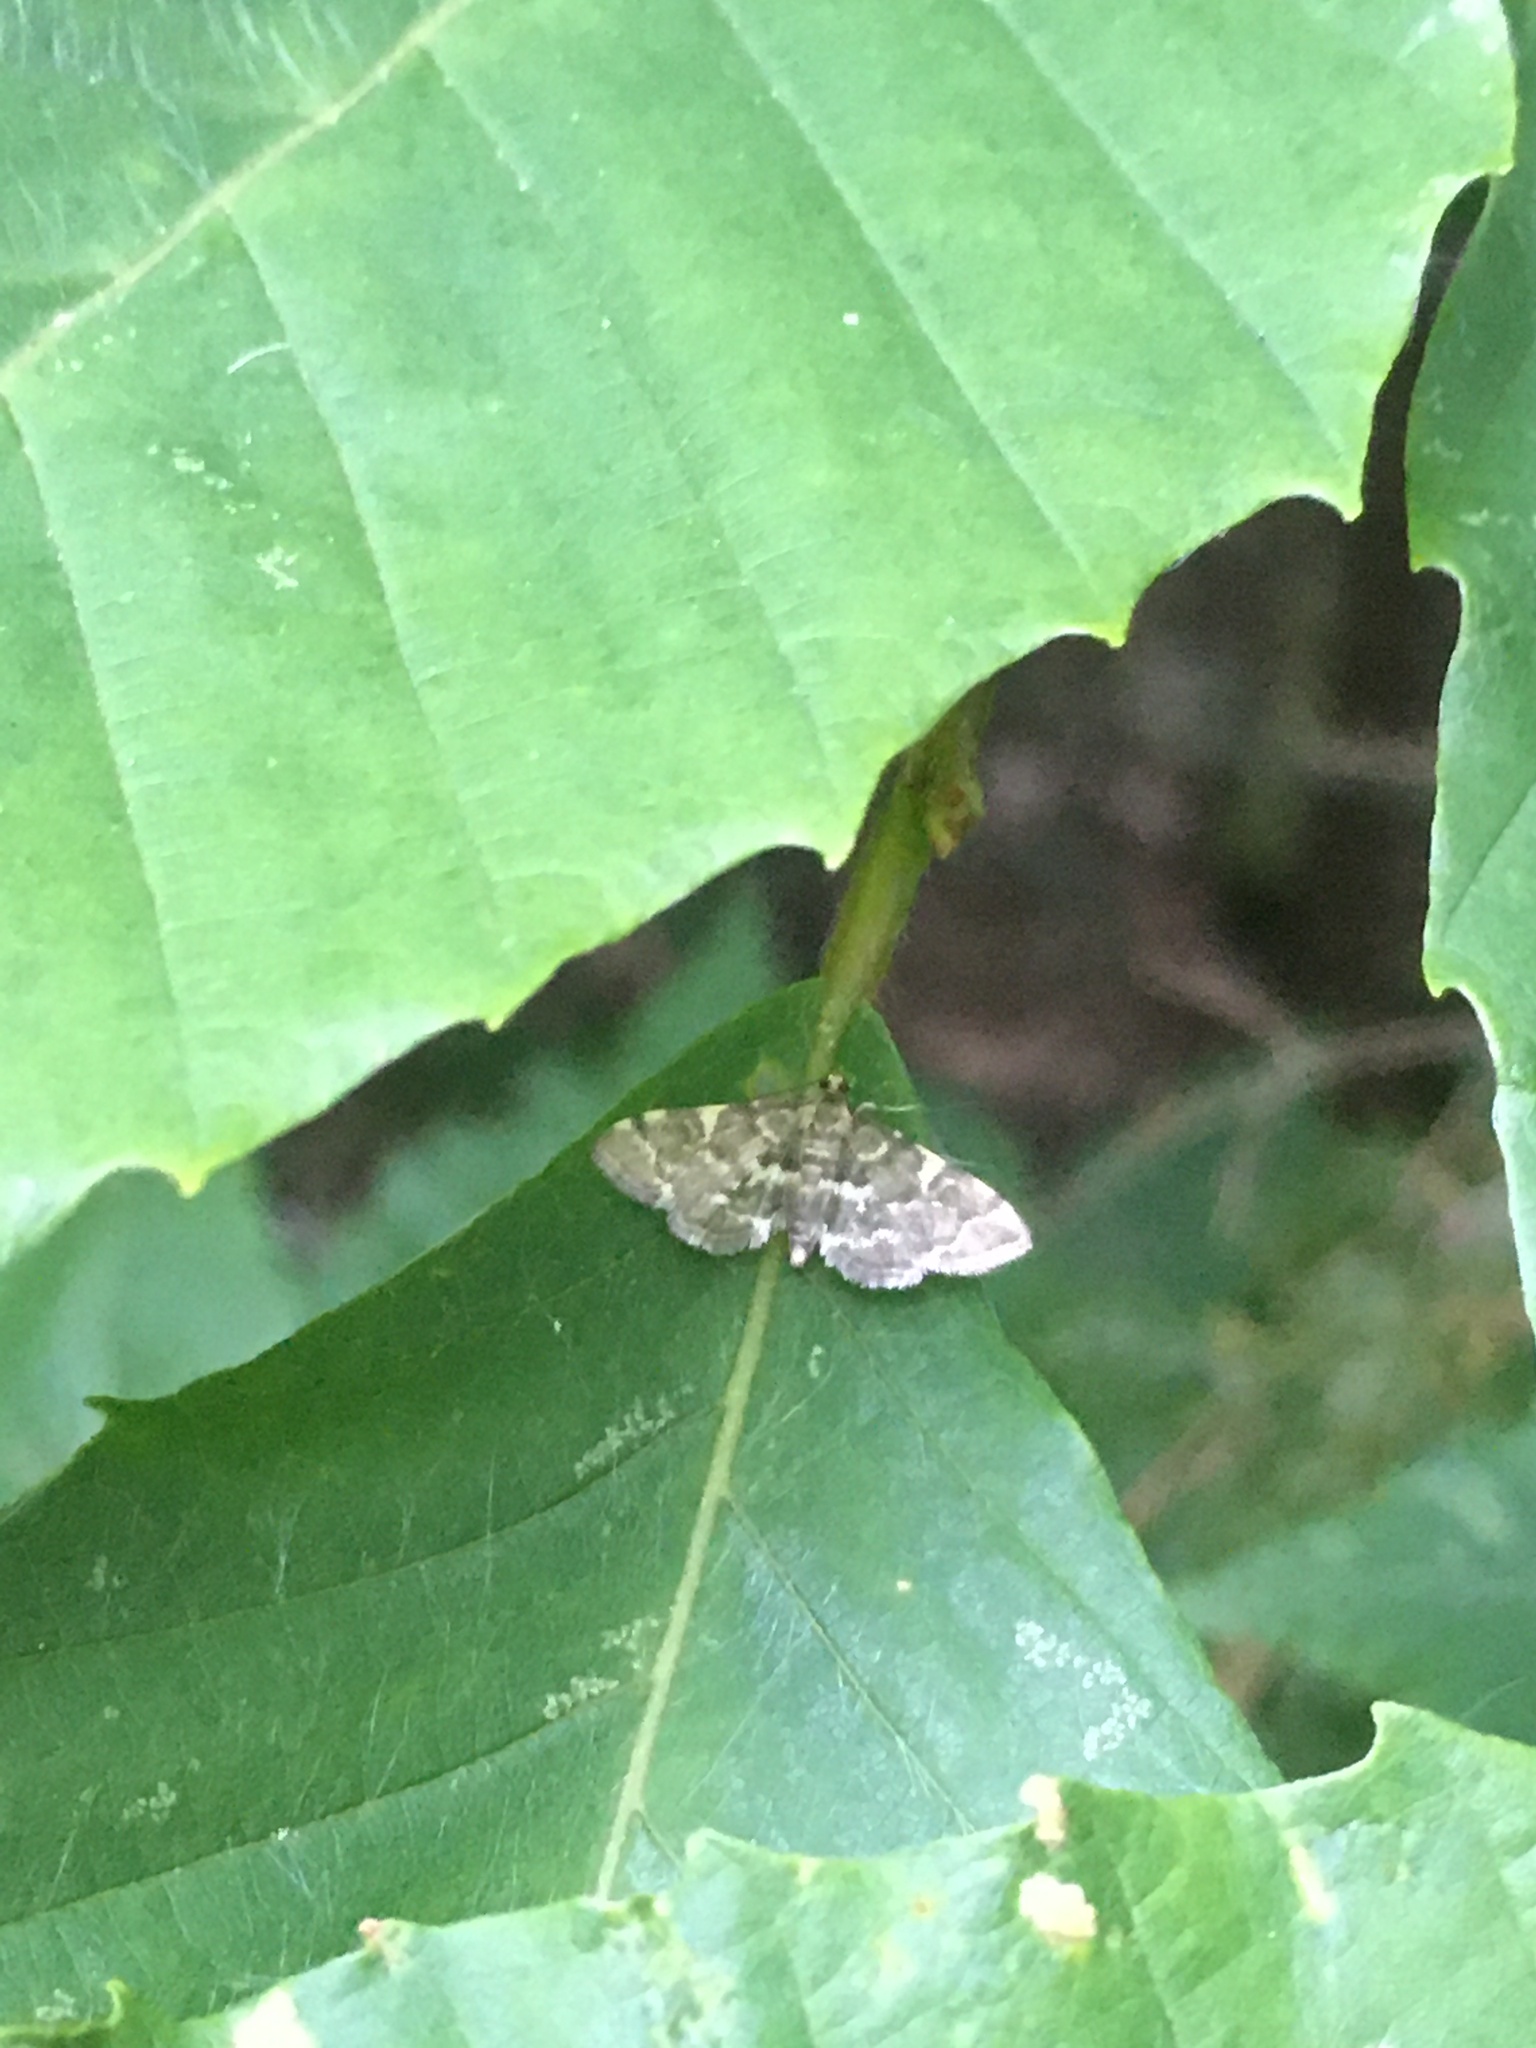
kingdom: Animalia
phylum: Arthropoda
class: Insecta
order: Lepidoptera
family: Crambidae
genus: Anageshna
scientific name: Anageshna primordialis
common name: Yellow-spotted webworm moth
